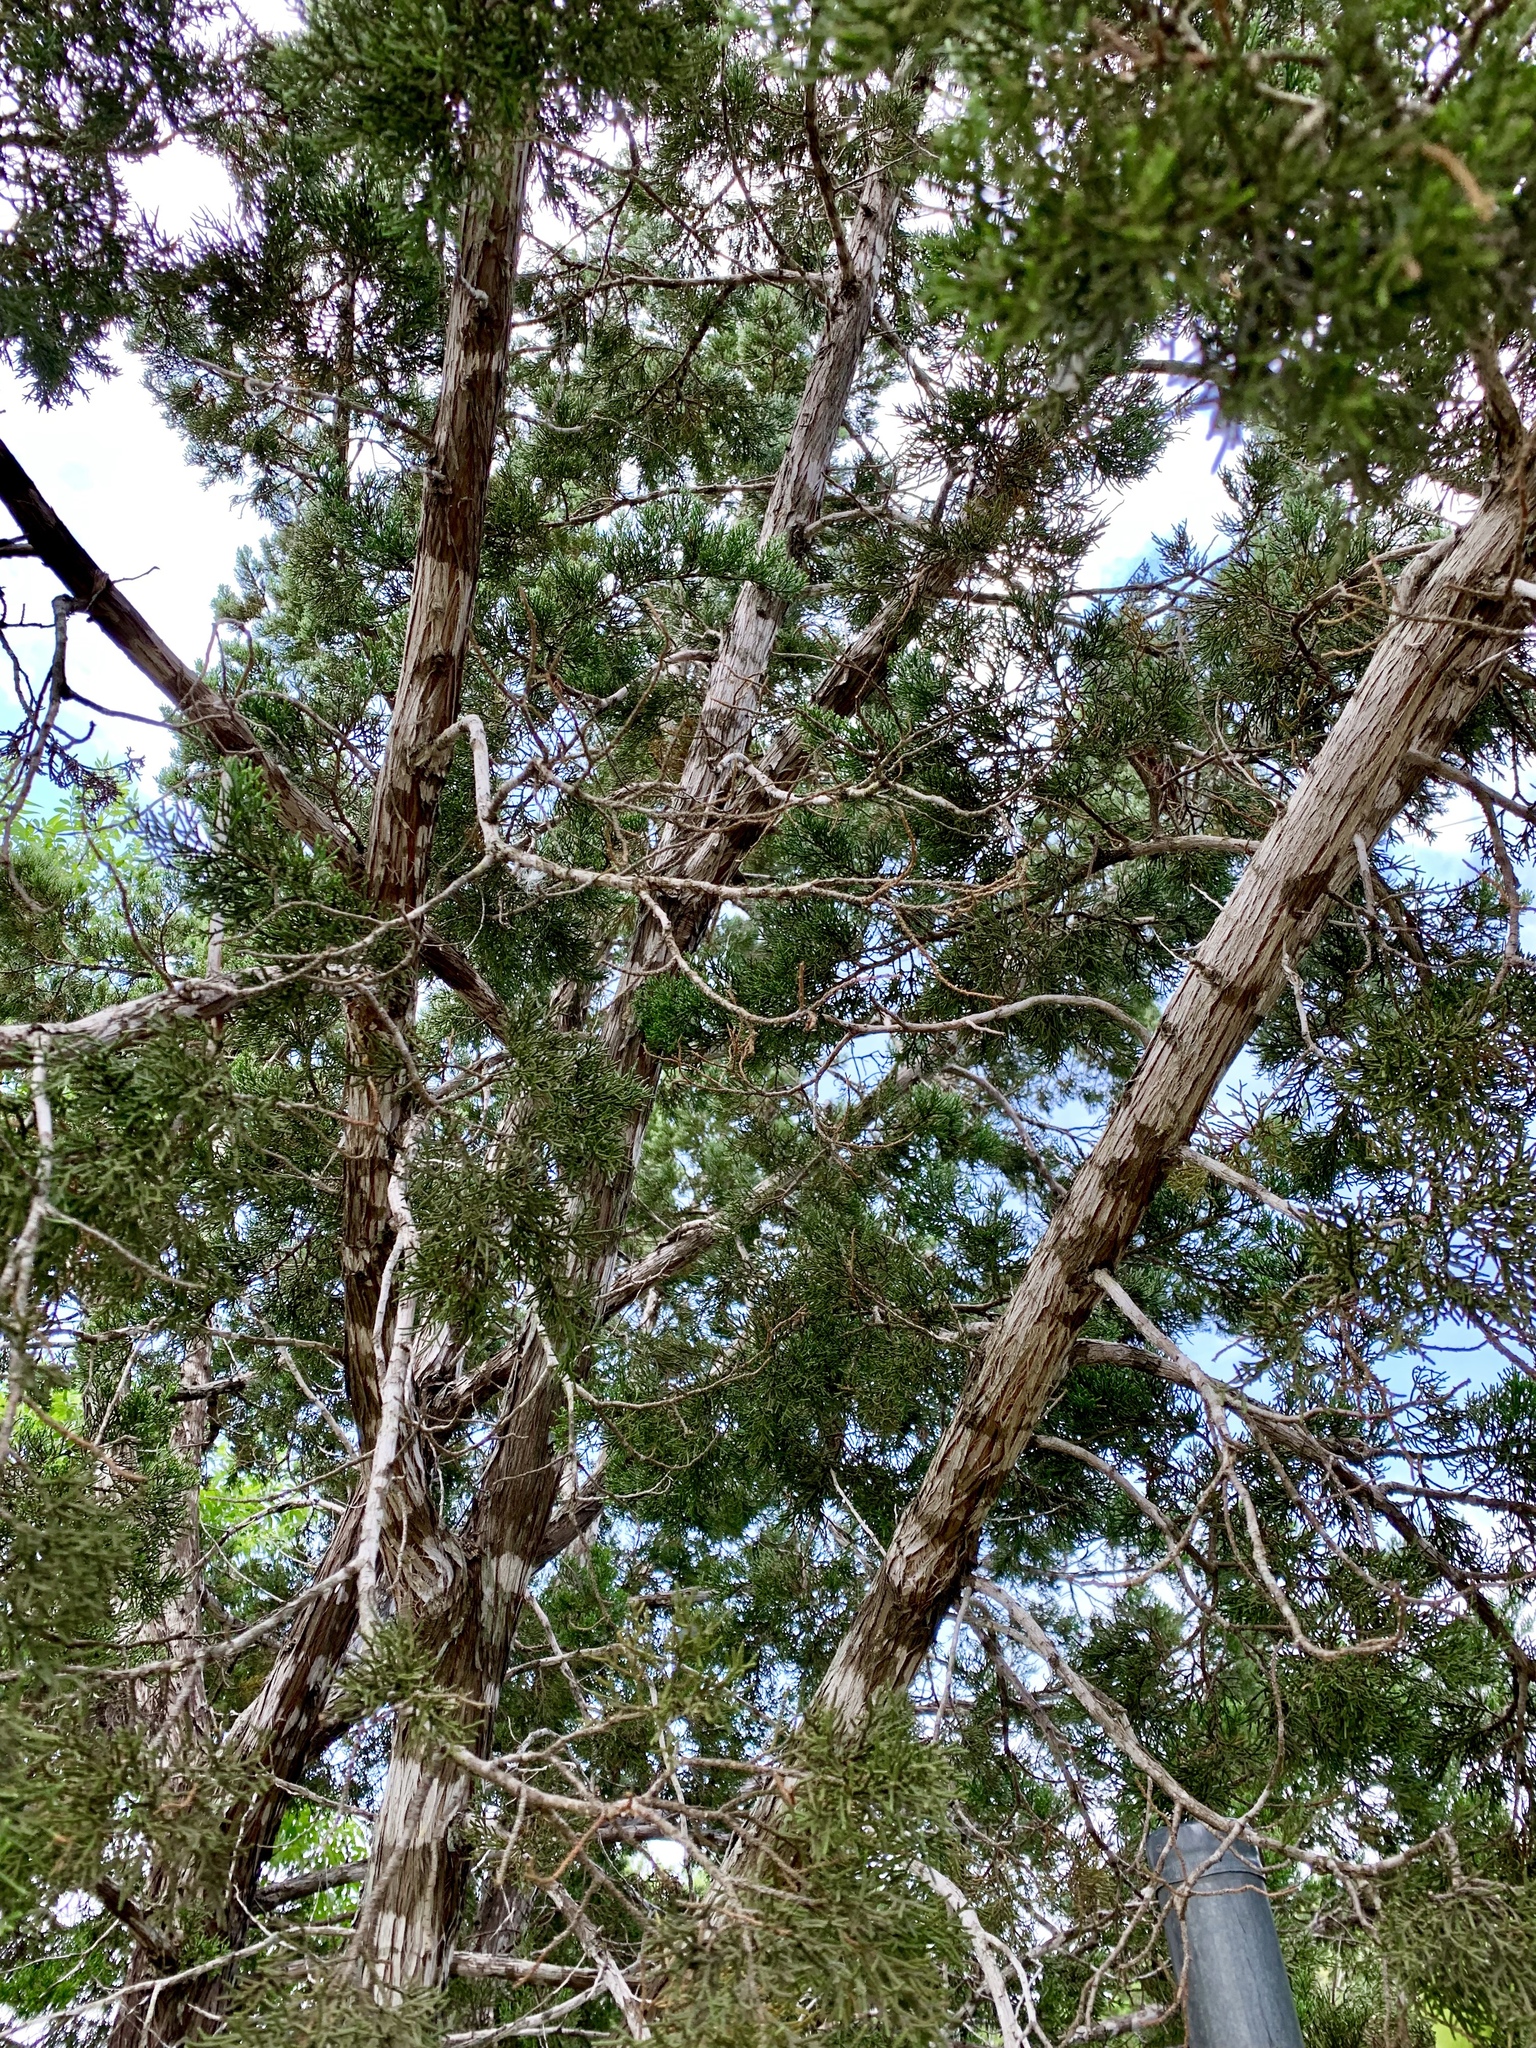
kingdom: Plantae
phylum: Tracheophyta
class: Pinopsida
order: Pinales
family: Cupressaceae
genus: Juniperus
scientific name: Juniperus ashei
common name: Mexican juniper
